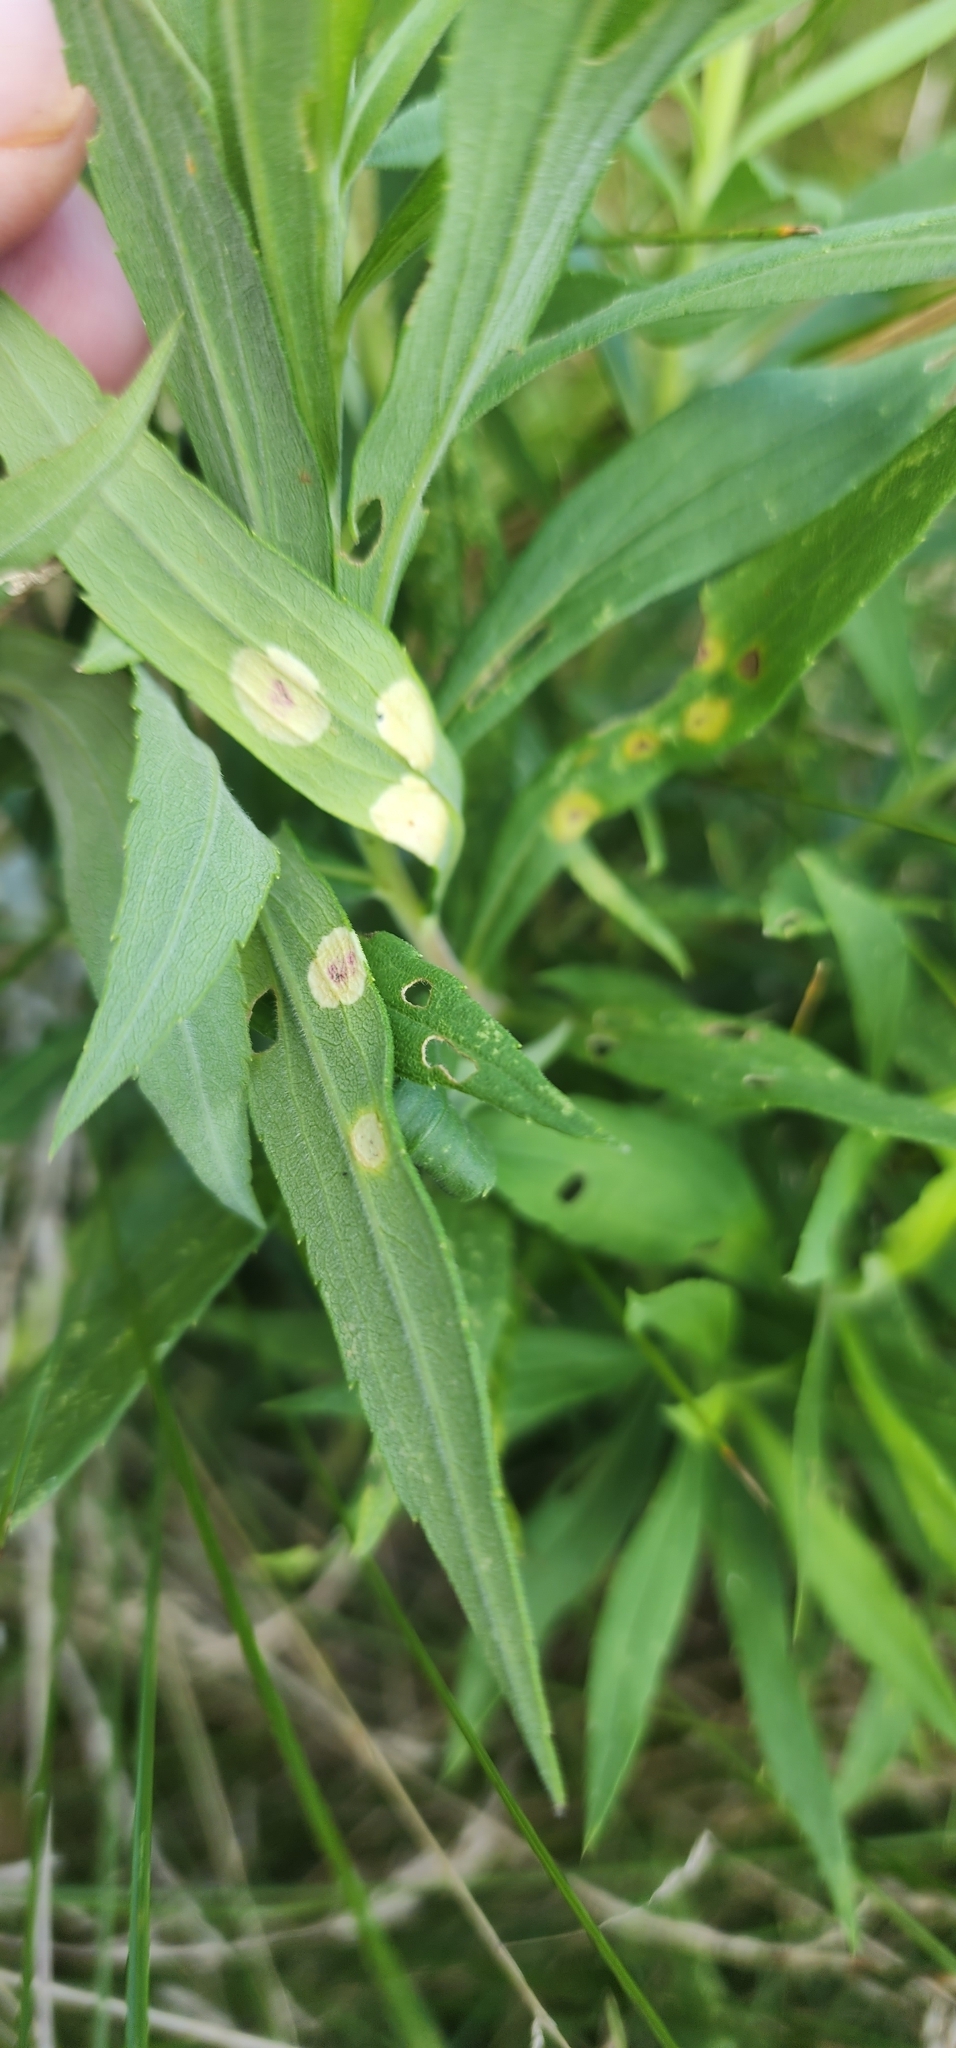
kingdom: Animalia
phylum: Arthropoda
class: Insecta
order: Diptera
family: Cecidomyiidae
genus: Asteromyia
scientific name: Asteromyia carbonifera
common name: Carbonifera goldenrod gall midge
